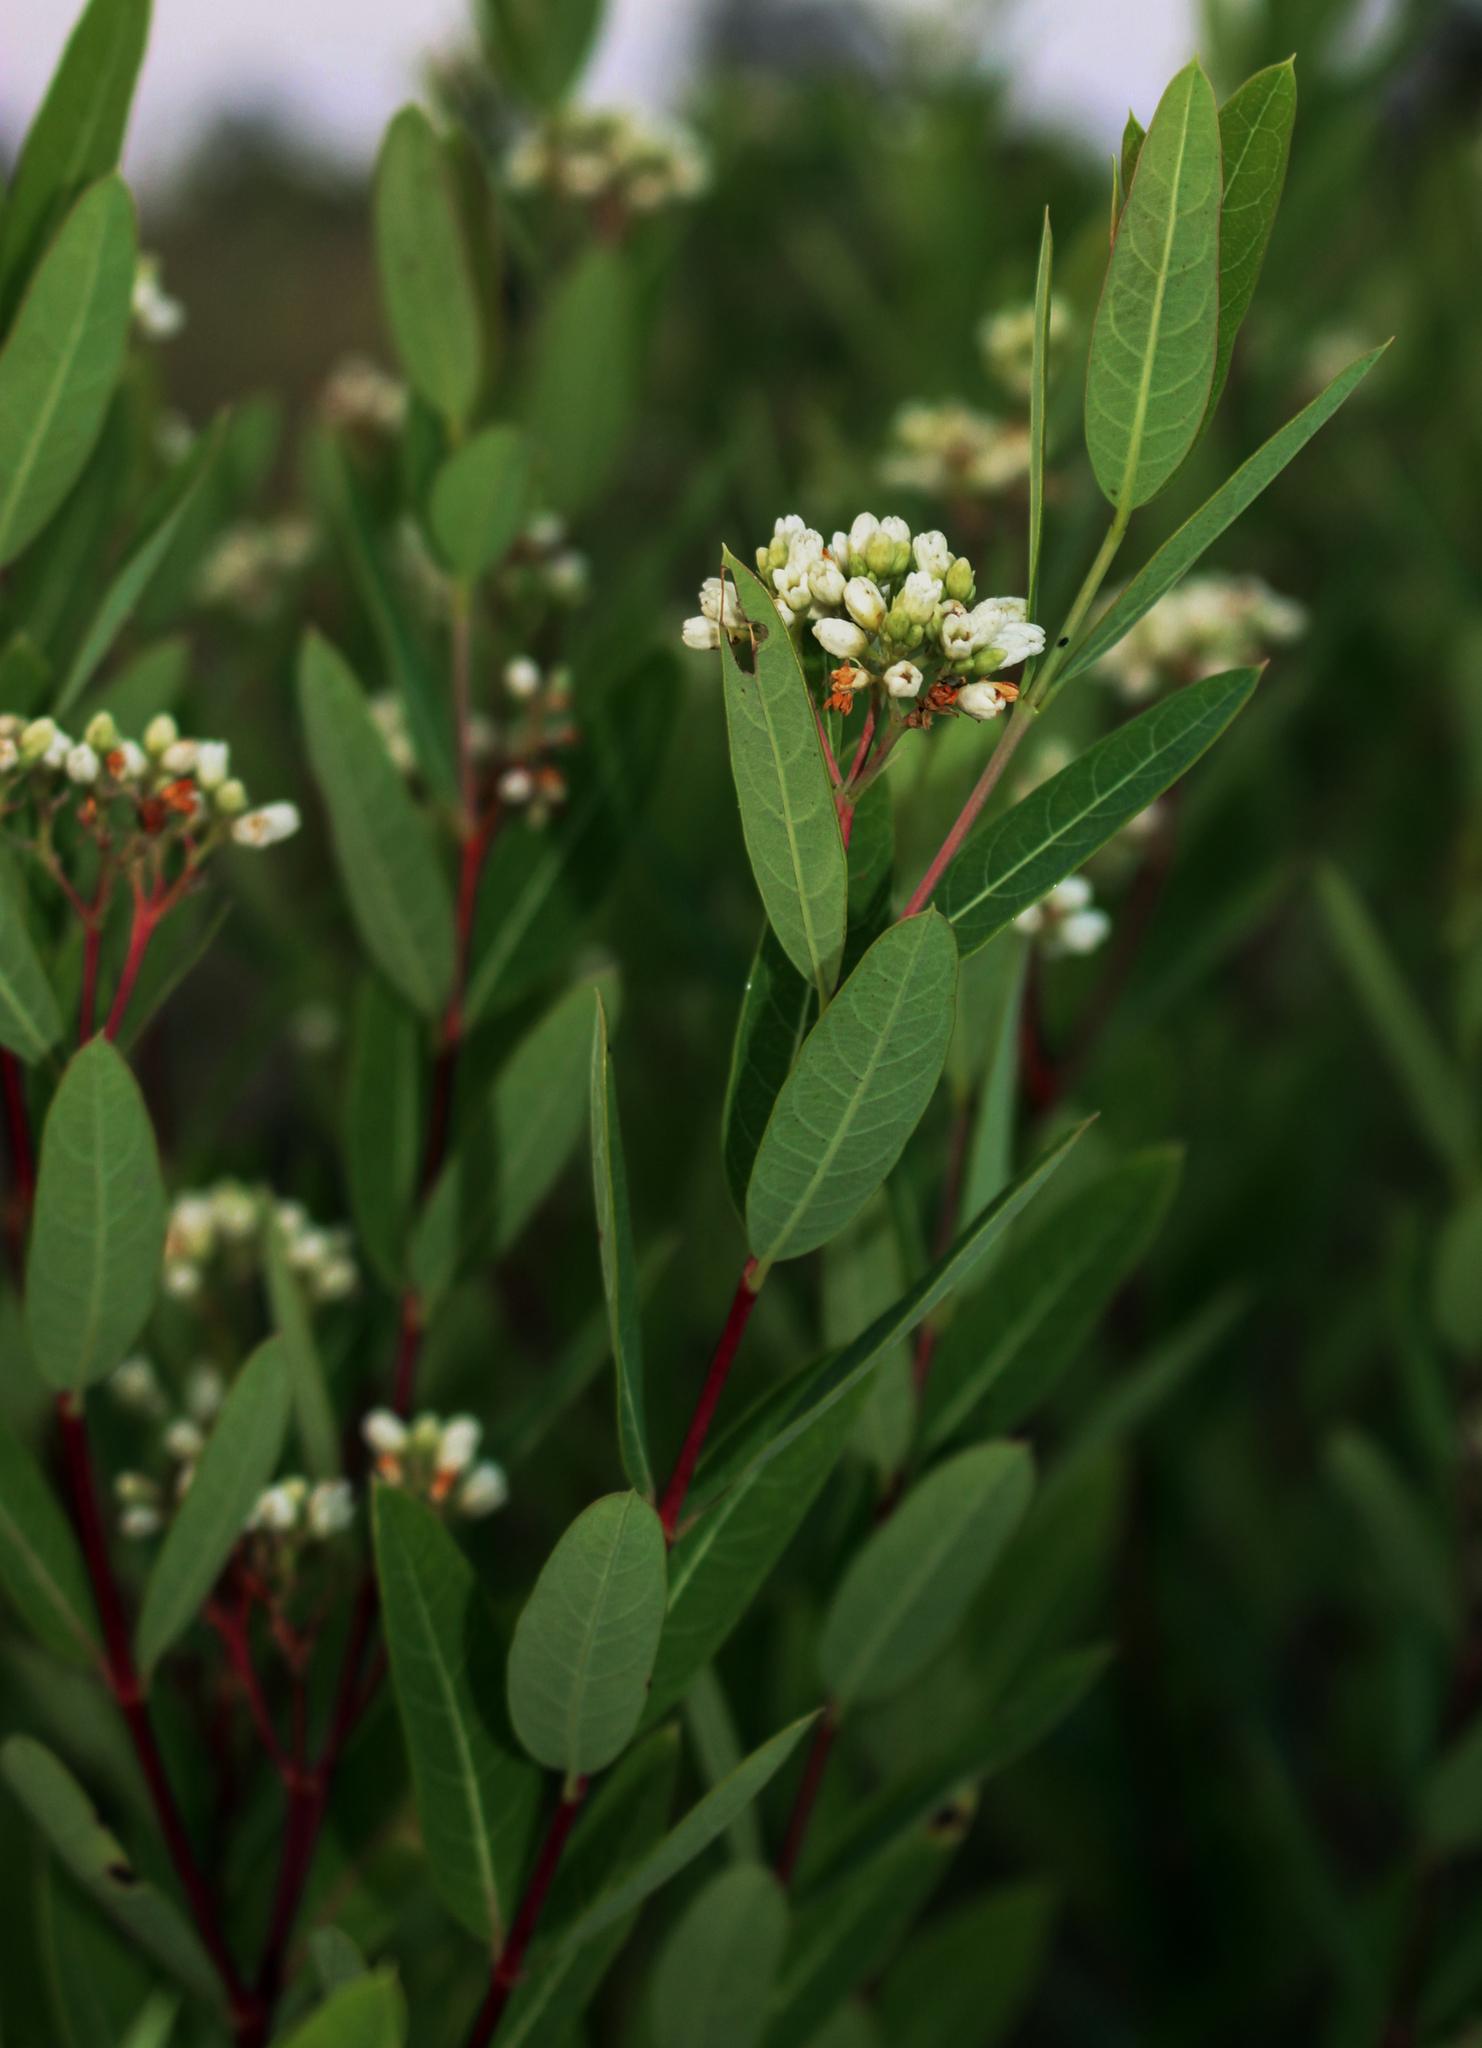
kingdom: Plantae
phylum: Tracheophyta
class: Magnoliopsida
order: Gentianales
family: Apocynaceae
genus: Apocynum
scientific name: Apocynum cannabinum
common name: Hemp dogbane
